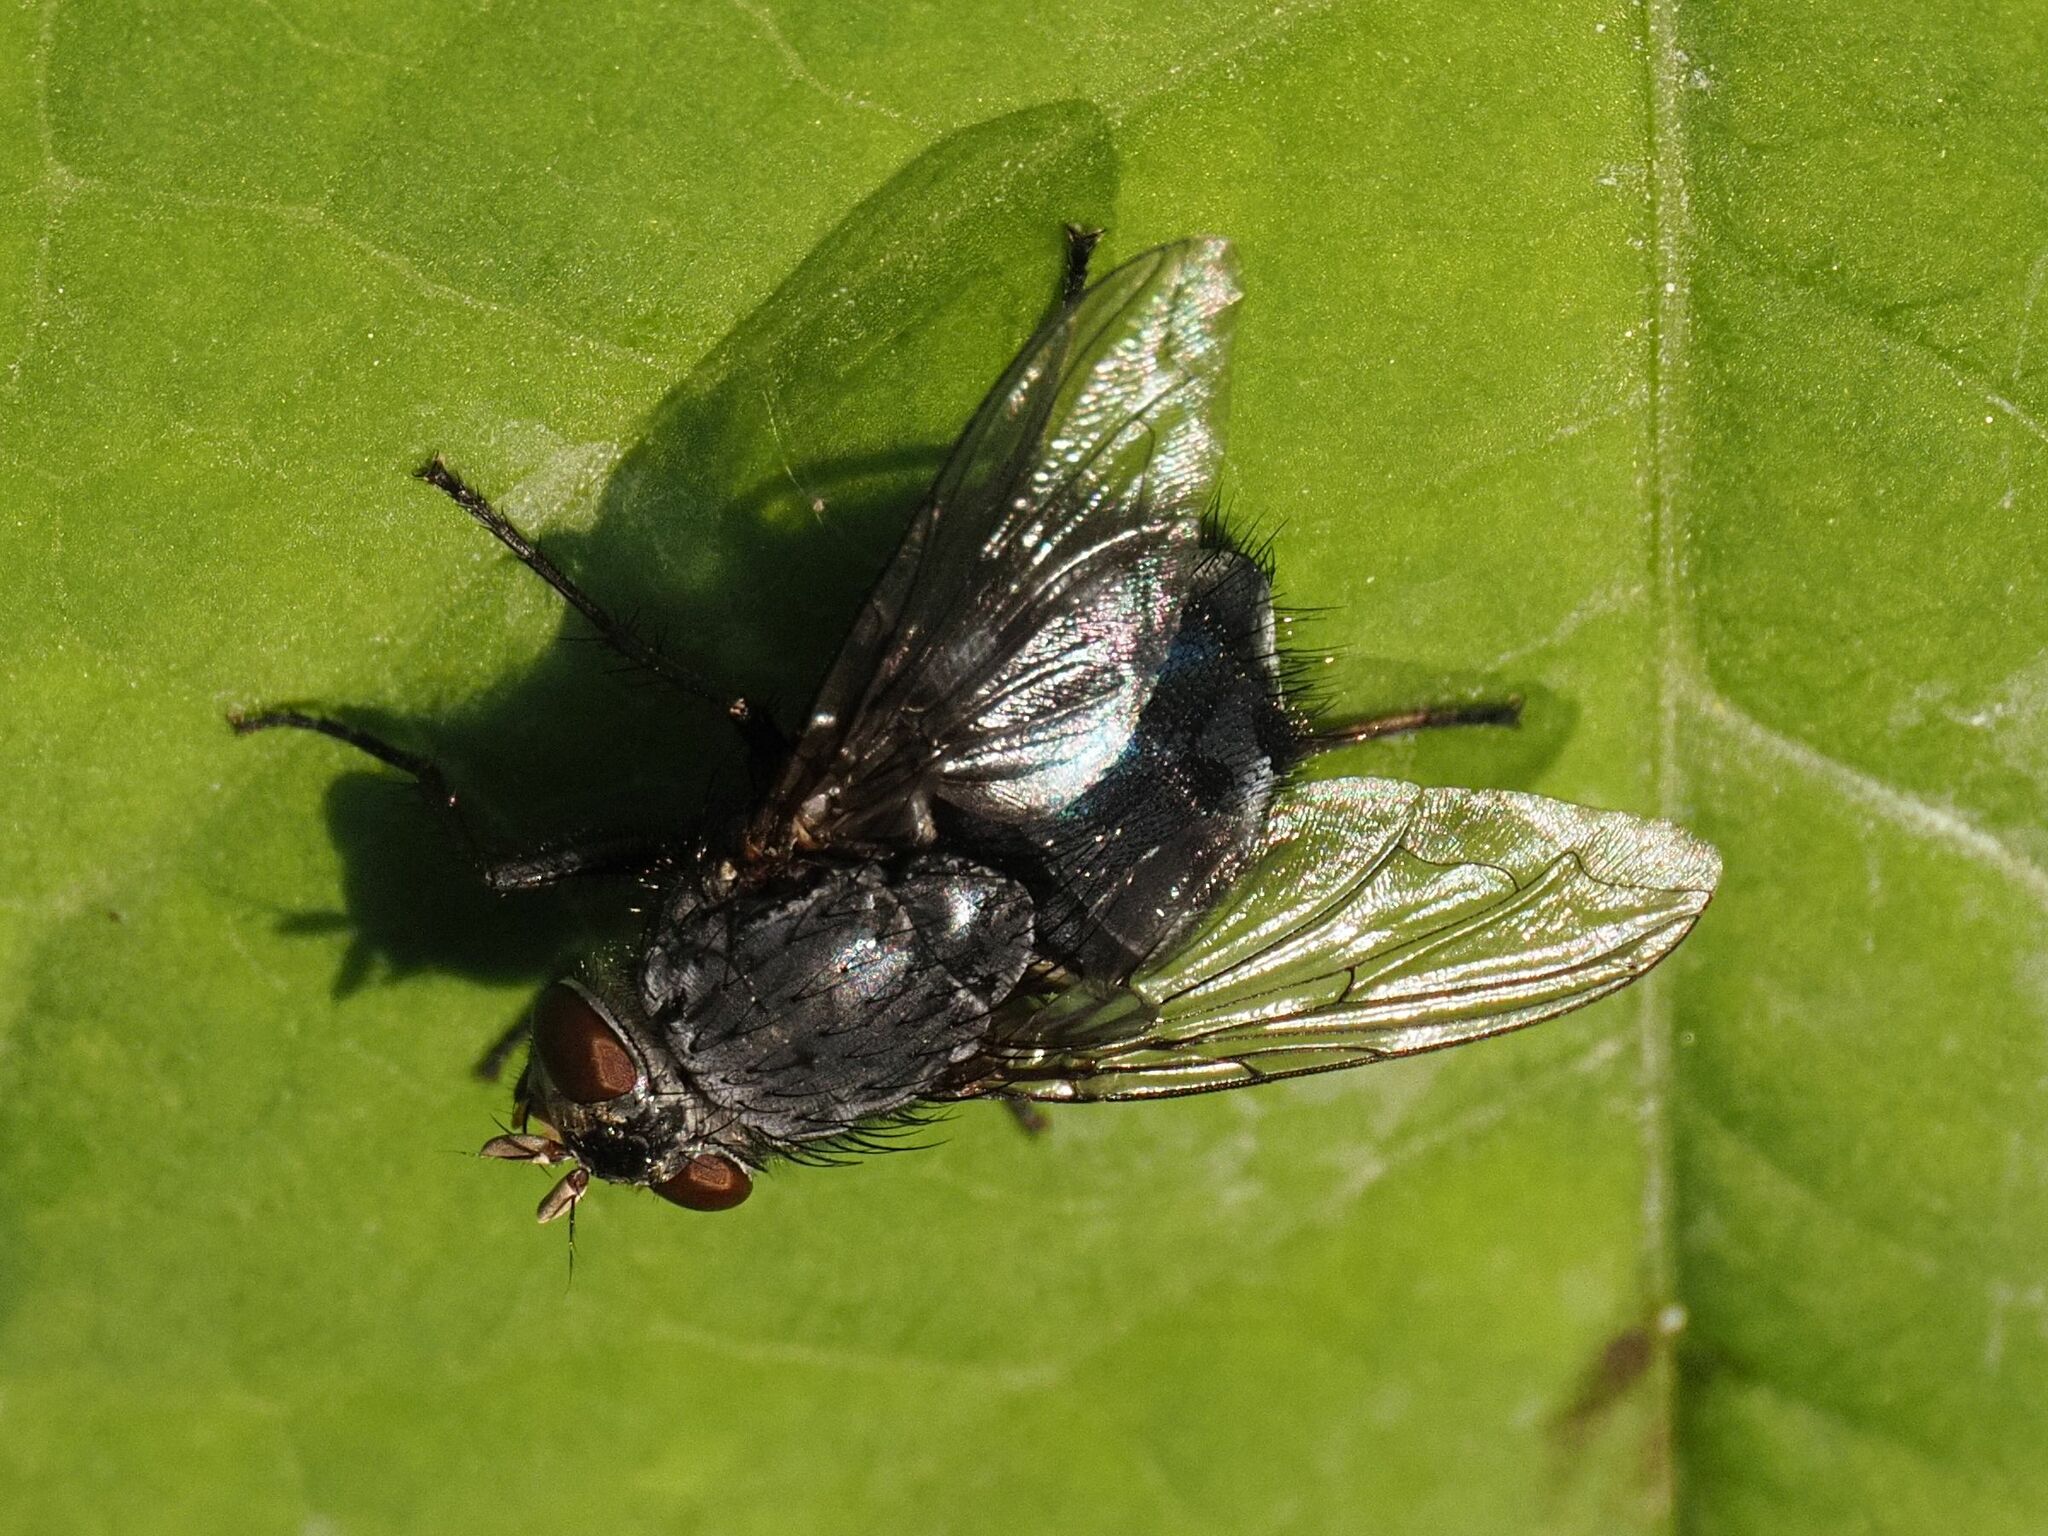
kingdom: Animalia
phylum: Arthropoda
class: Insecta
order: Diptera
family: Calliphoridae
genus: Calliphora
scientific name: Calliphora vicina
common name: Common blow flie
